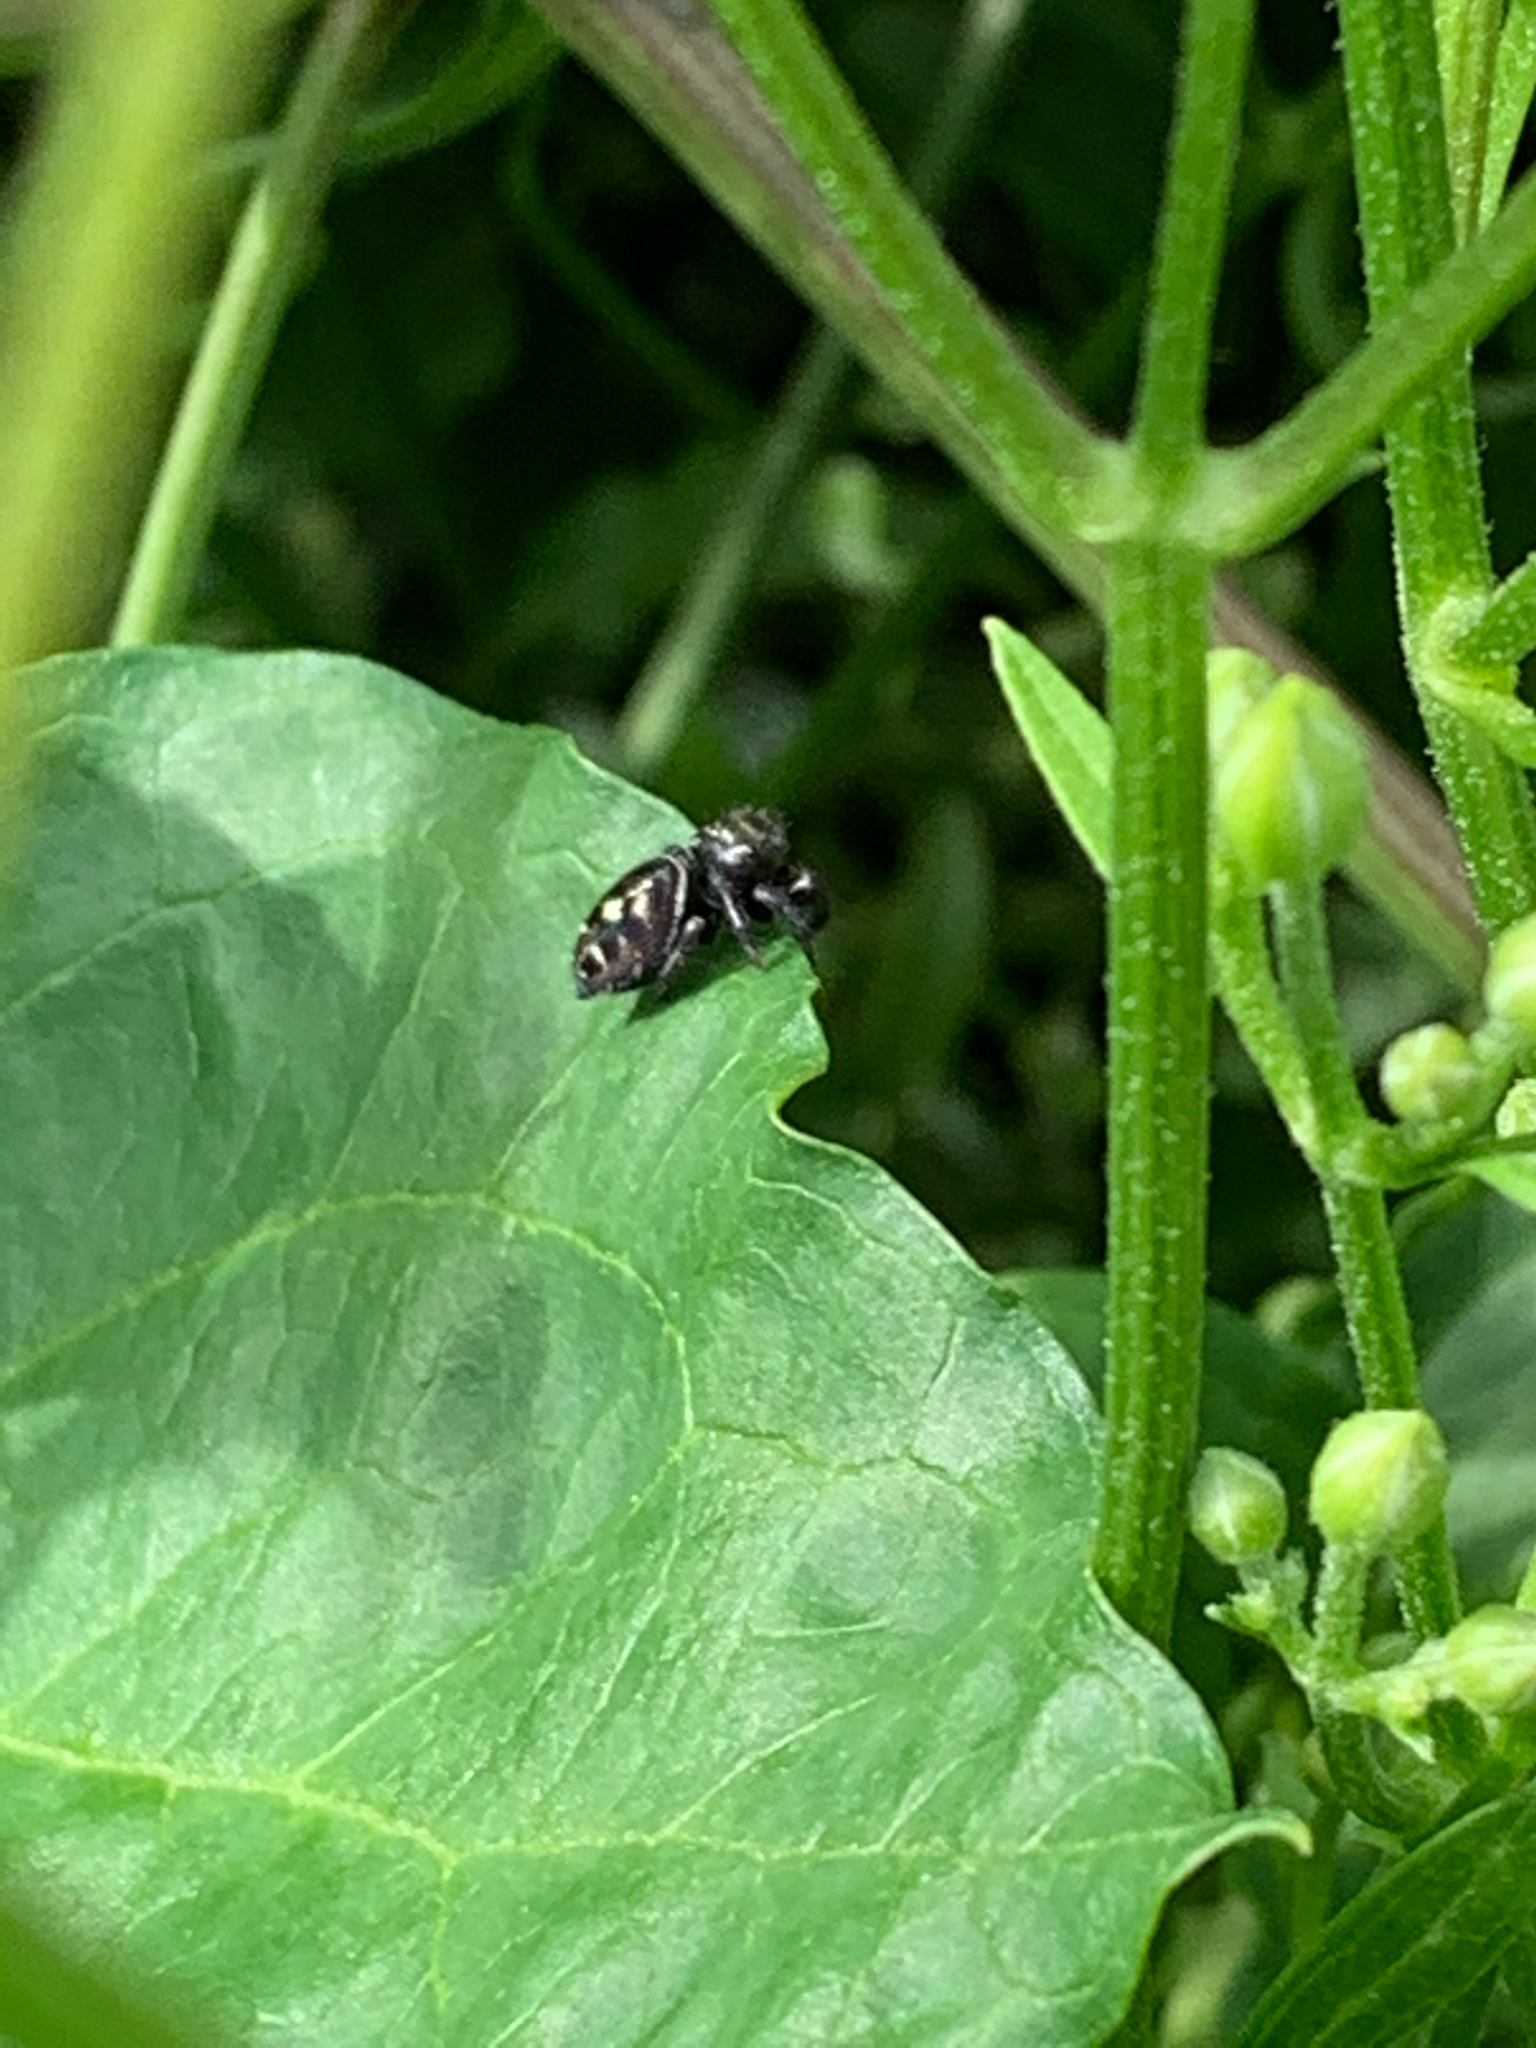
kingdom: Animalia
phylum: Arthropoda
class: Arachnida
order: Araneae
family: Salticidae
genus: Phidippus
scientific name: Phidippus audax
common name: Bold jumper
